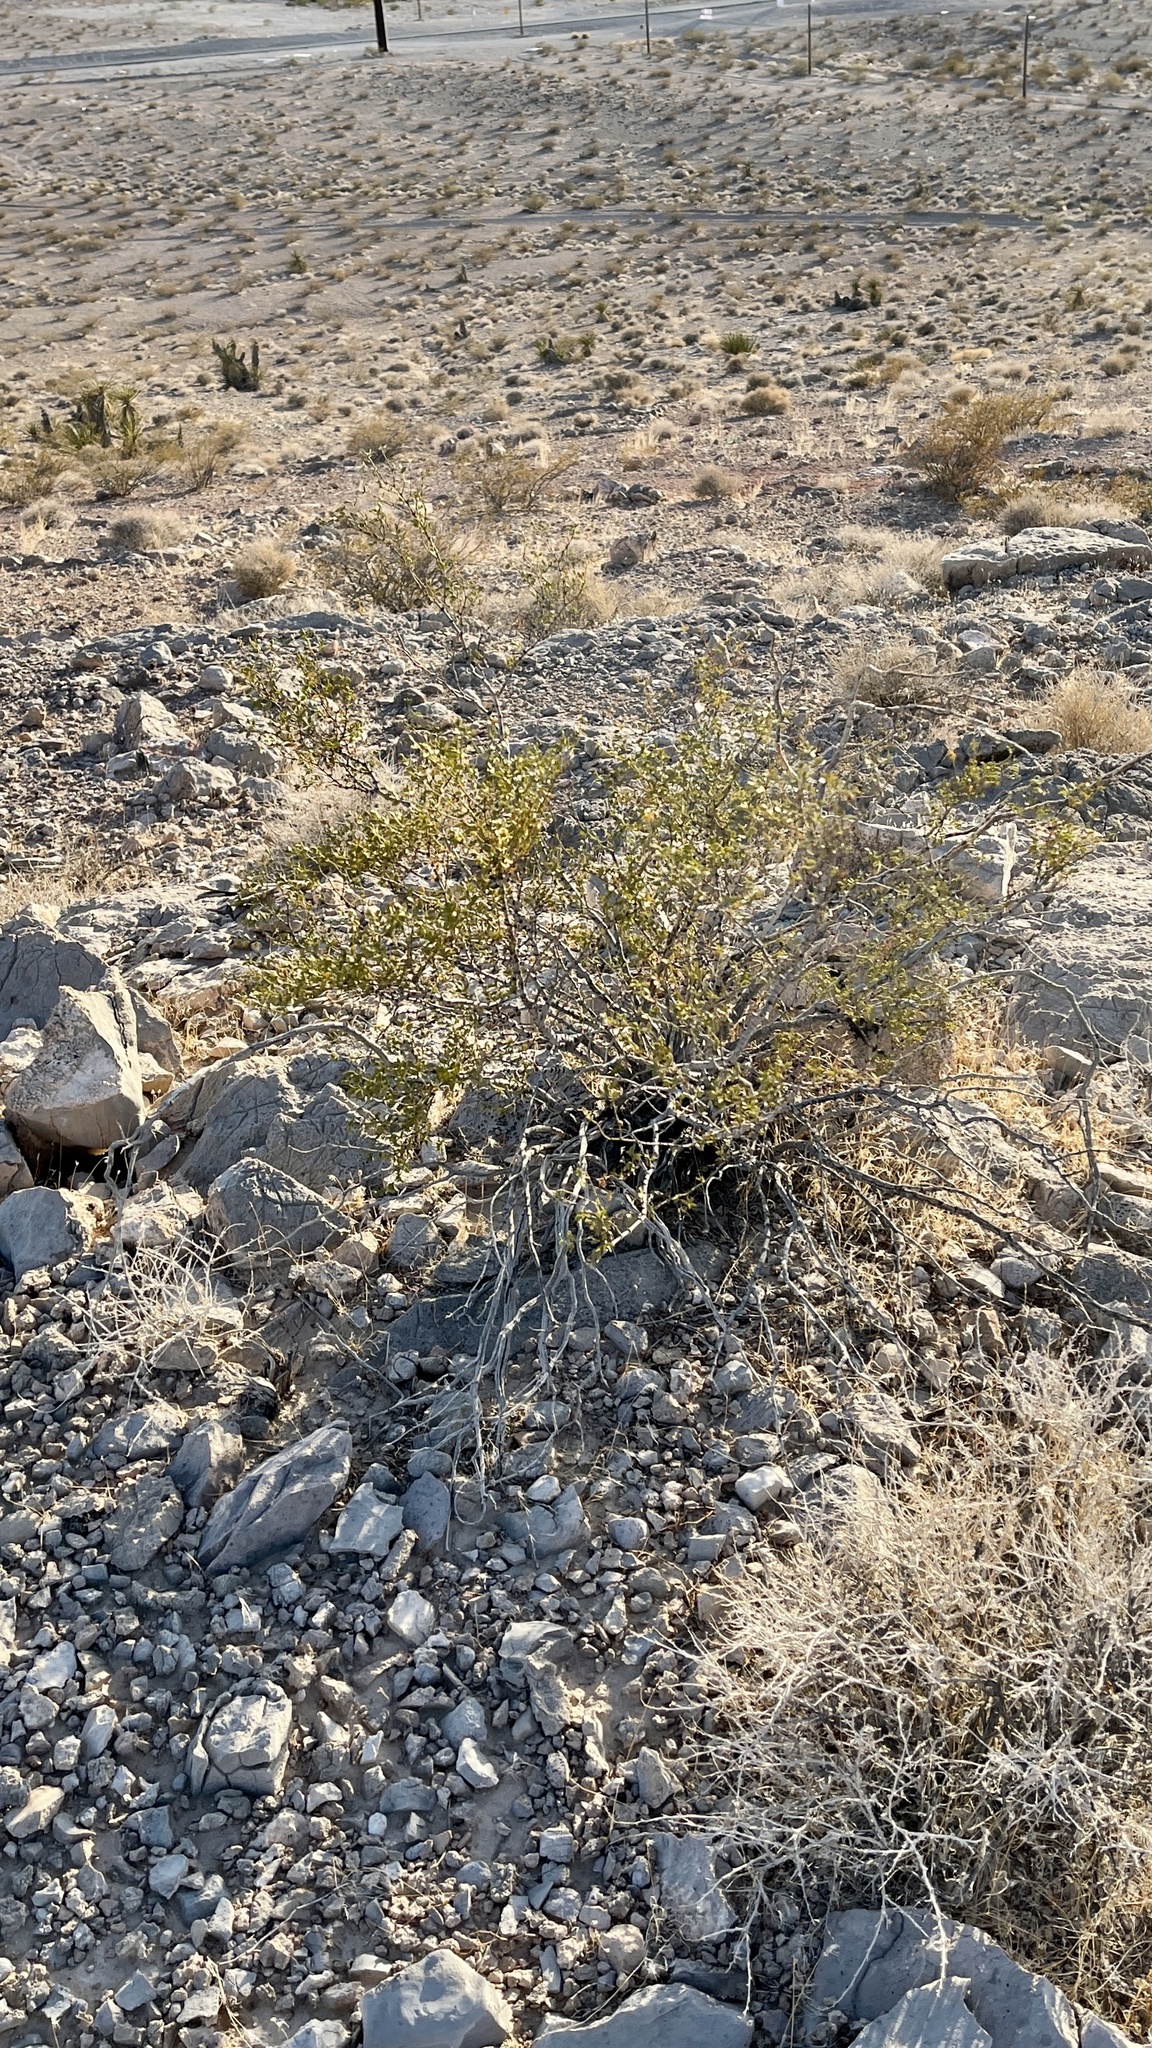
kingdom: Plantae
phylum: Tracheophyta
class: Magnoliopsida
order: Zygophyllales
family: Zygophyllaceae
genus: Larrea
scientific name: Larrea tridentata
